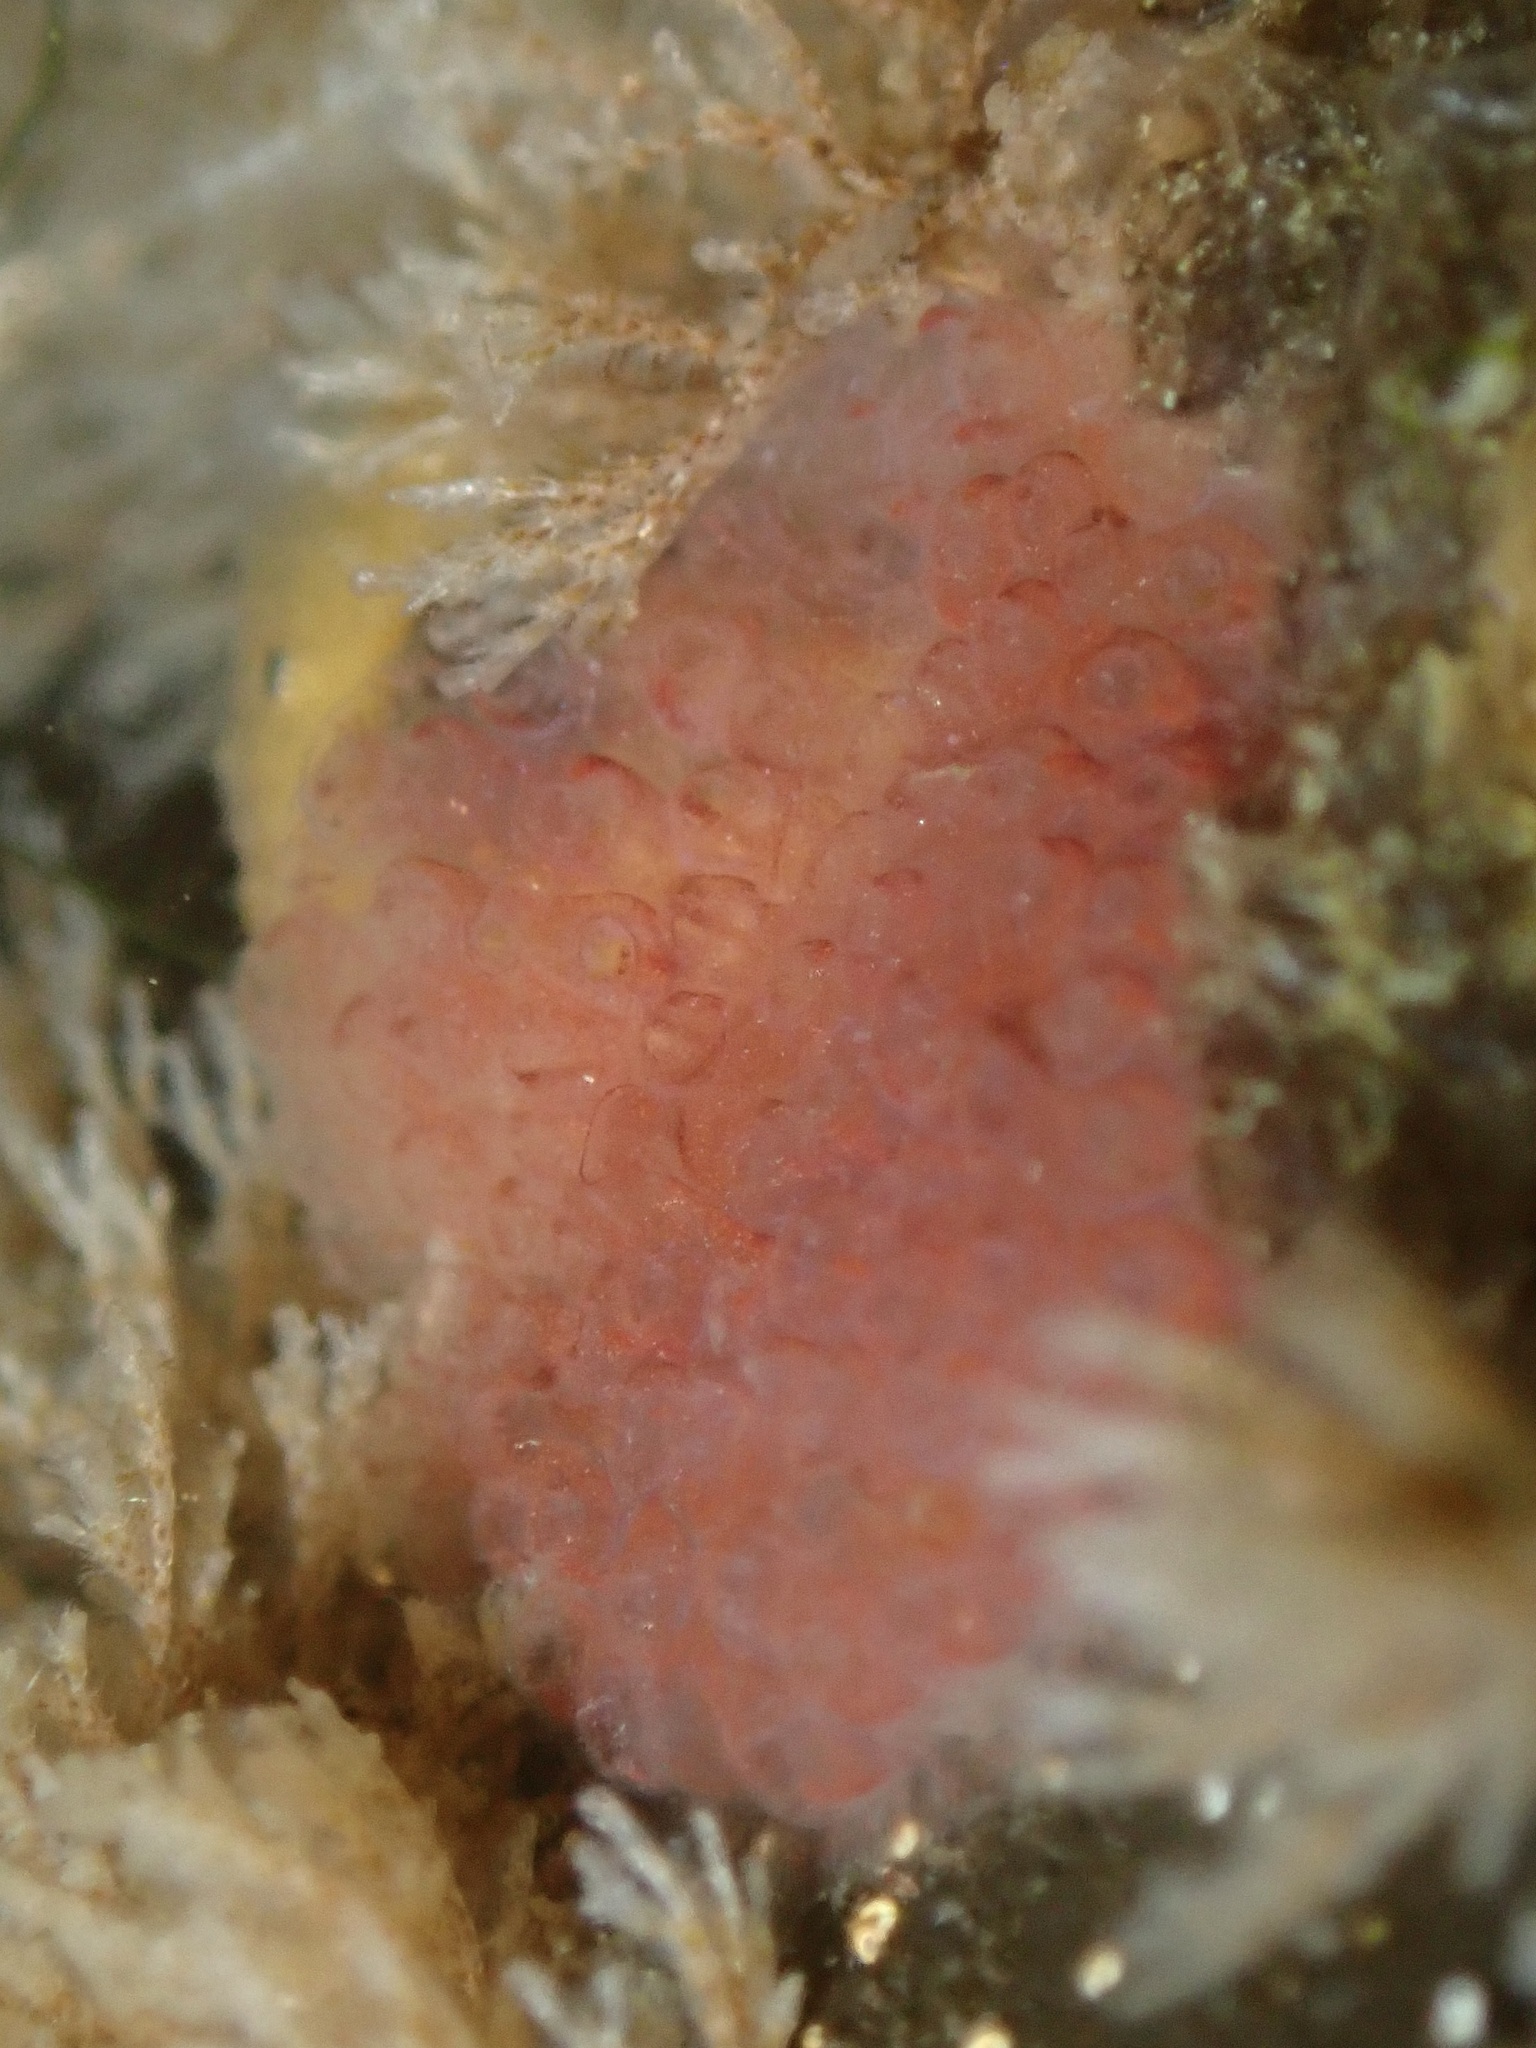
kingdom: Animalia
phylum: Chordata
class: Ascidiacea
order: Stolidobranchia
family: Styelidae
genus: Botrylloides
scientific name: Botrylloides violaceus
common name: Colonial sea squirt
